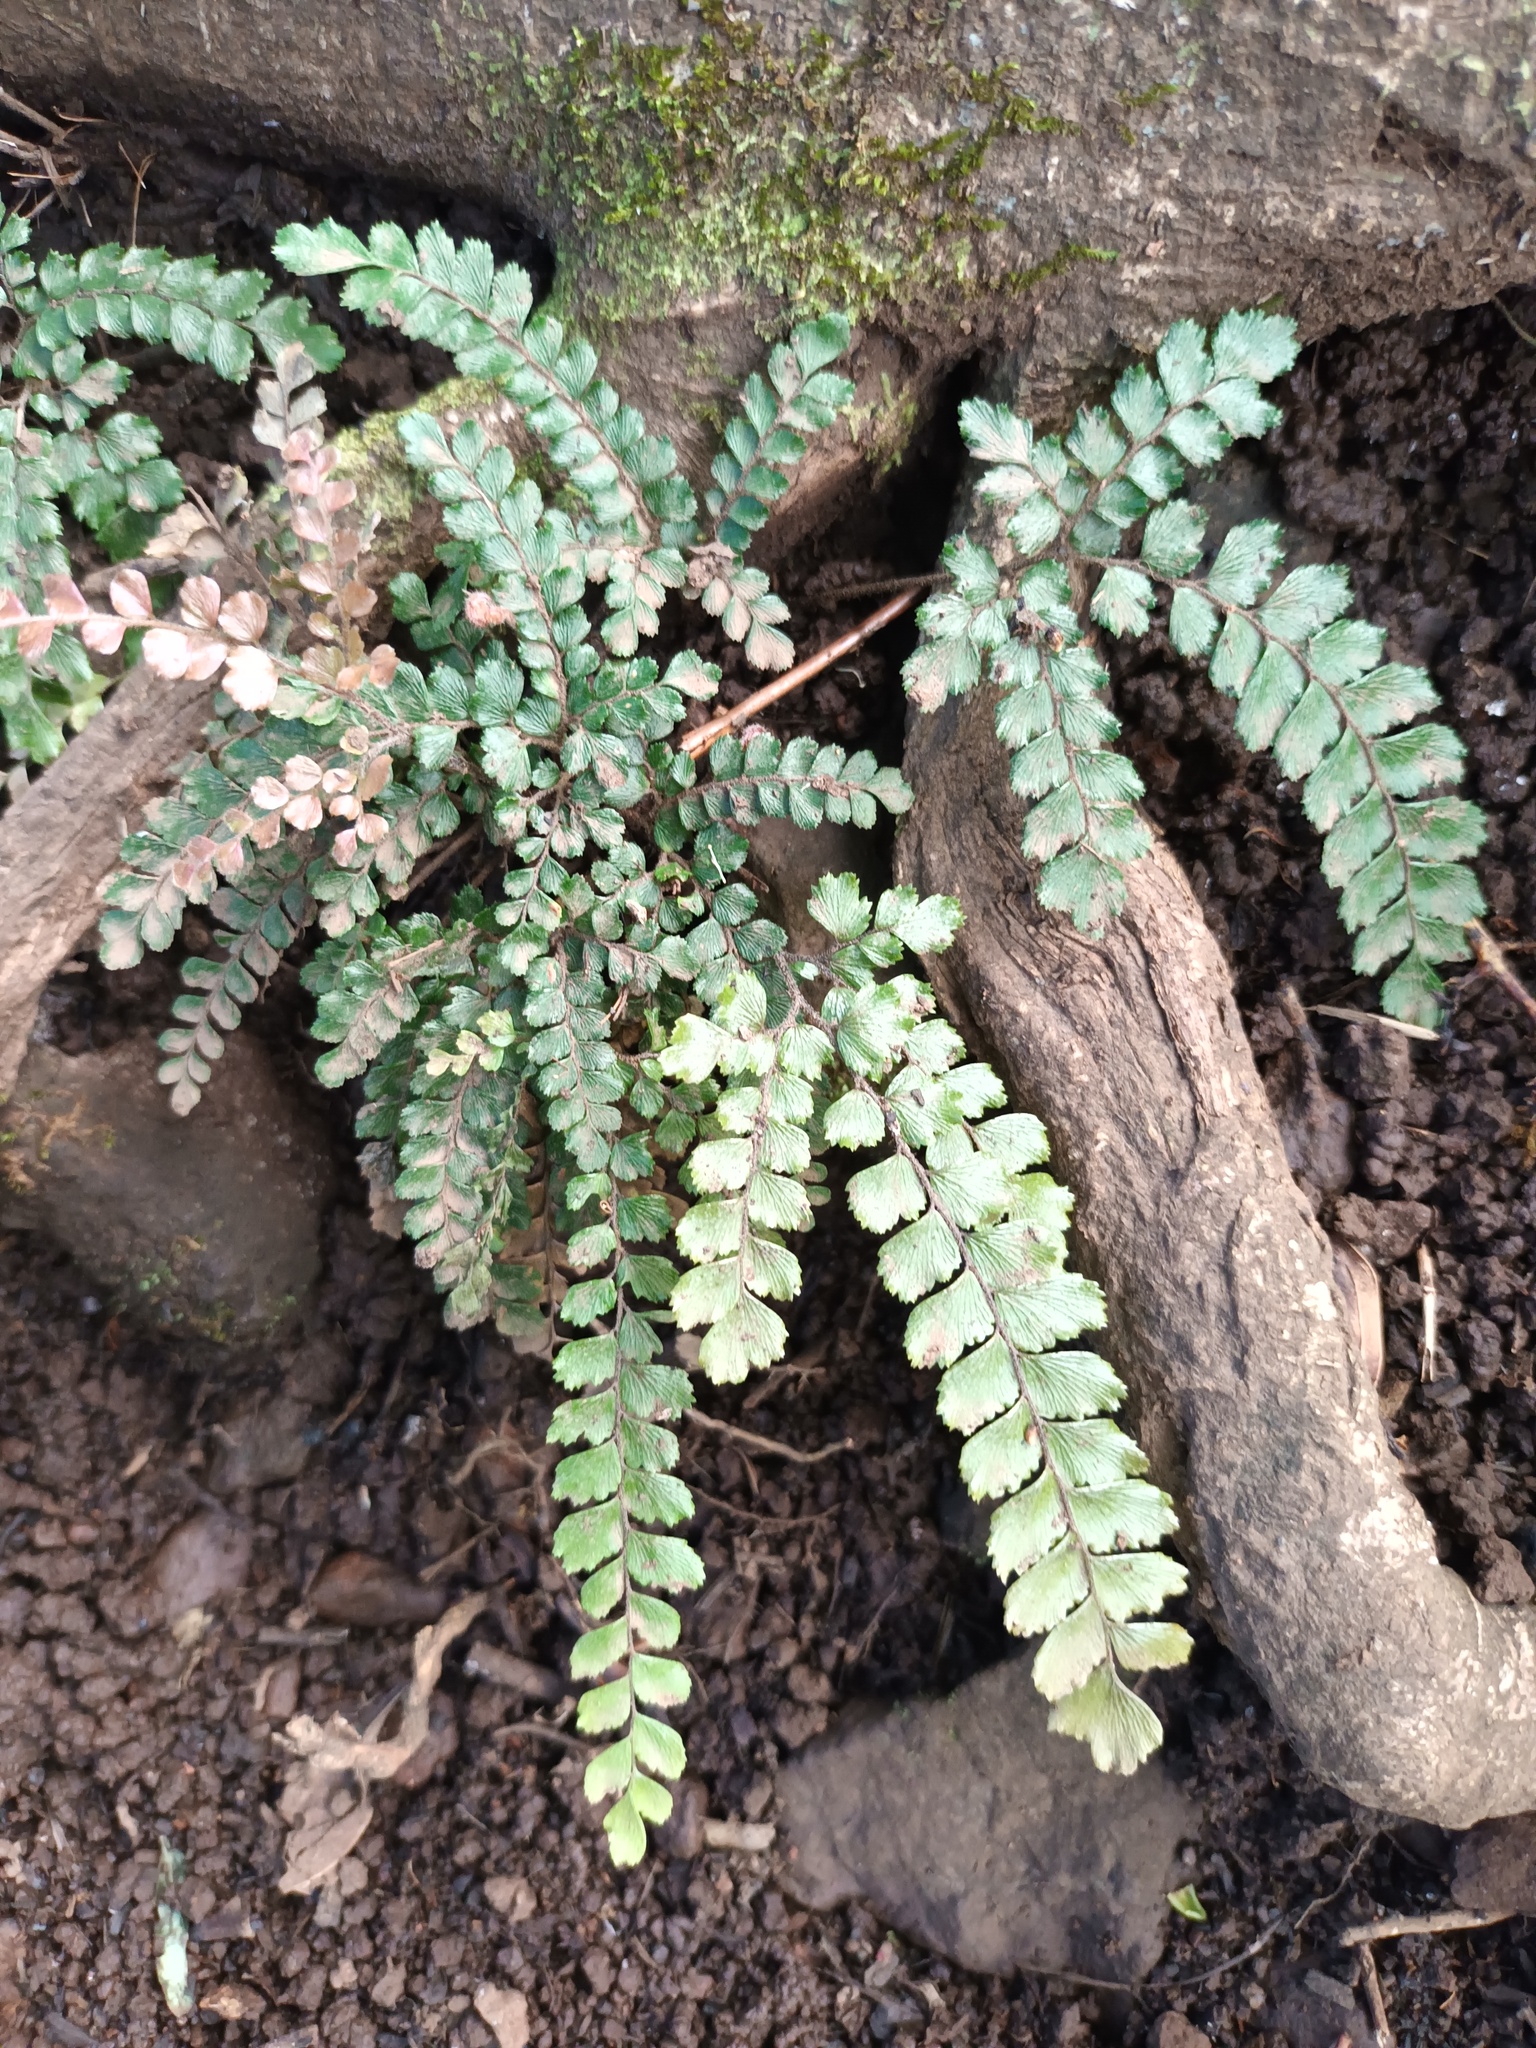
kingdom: Plantae
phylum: Tracheophyta
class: Polypodiopsida
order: Polypodiales
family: Pteridaceae
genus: Adiantum
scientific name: Adiantum hispidulum
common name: Rough maidenhair
